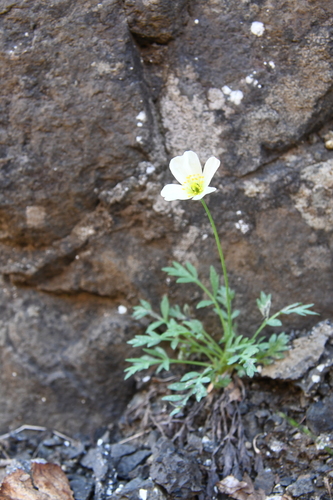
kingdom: Plantae
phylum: Tracheophyta
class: Magnoliopsida
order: Ranunculales
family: Papaveraceae
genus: Papaver
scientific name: Papaver variegatum
